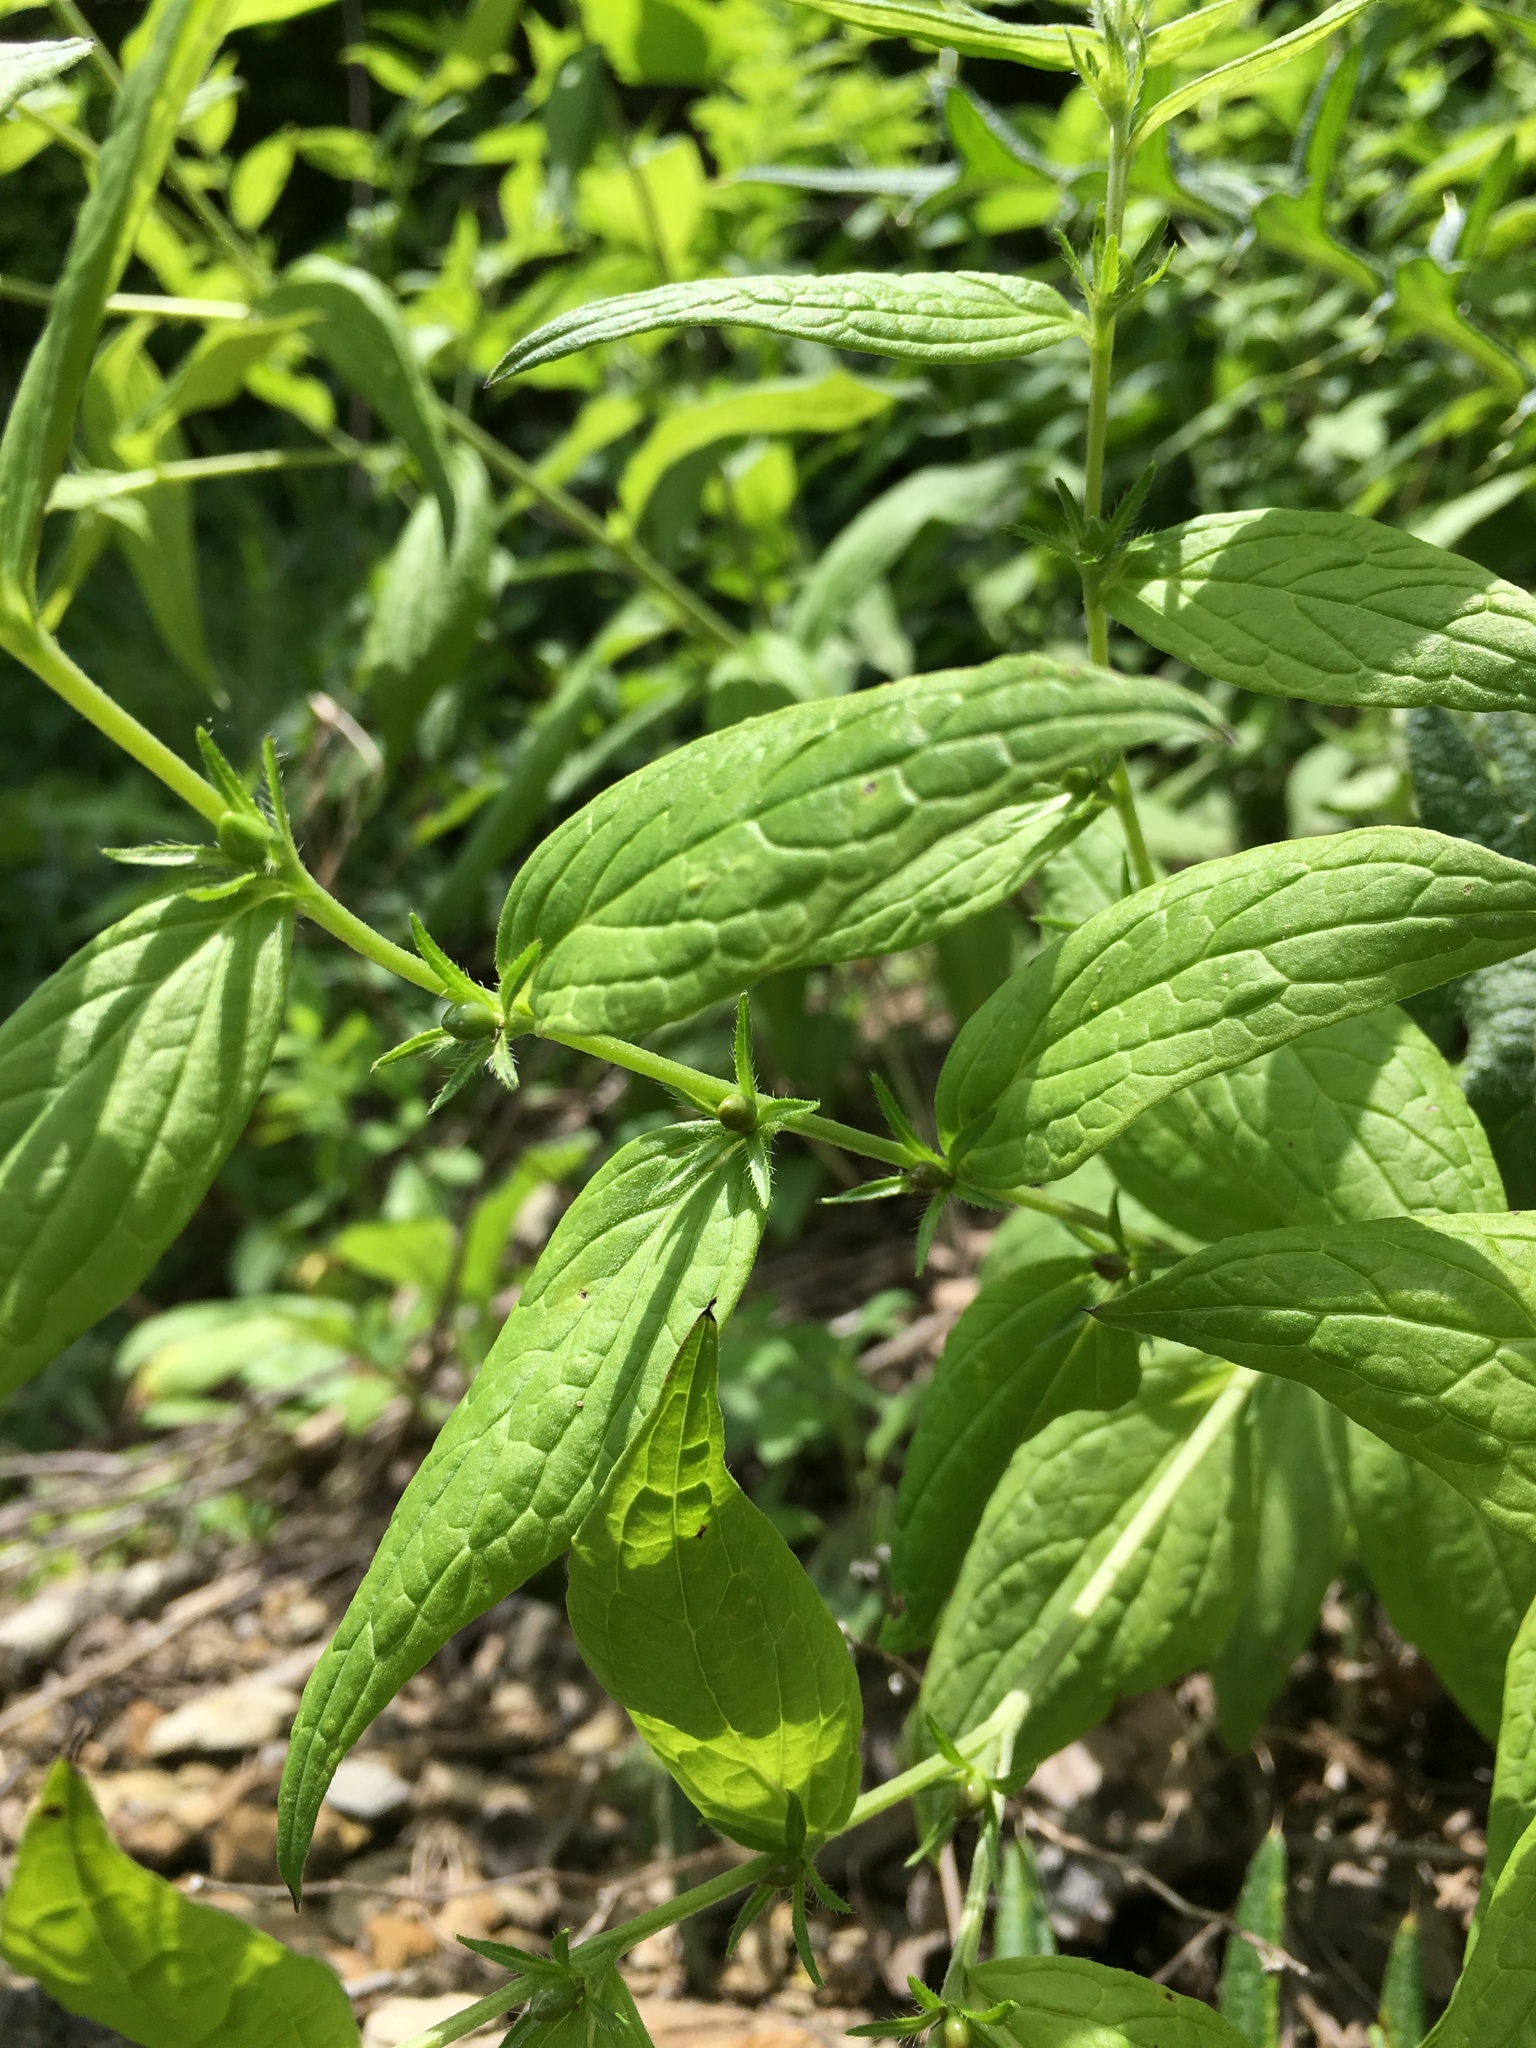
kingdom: Plantae
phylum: Tracheophyta
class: Magnoliopsida
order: Boraginales
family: Boraginaceae
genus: Lithospermum
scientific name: Lithospermum latifolium
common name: American gromwell
